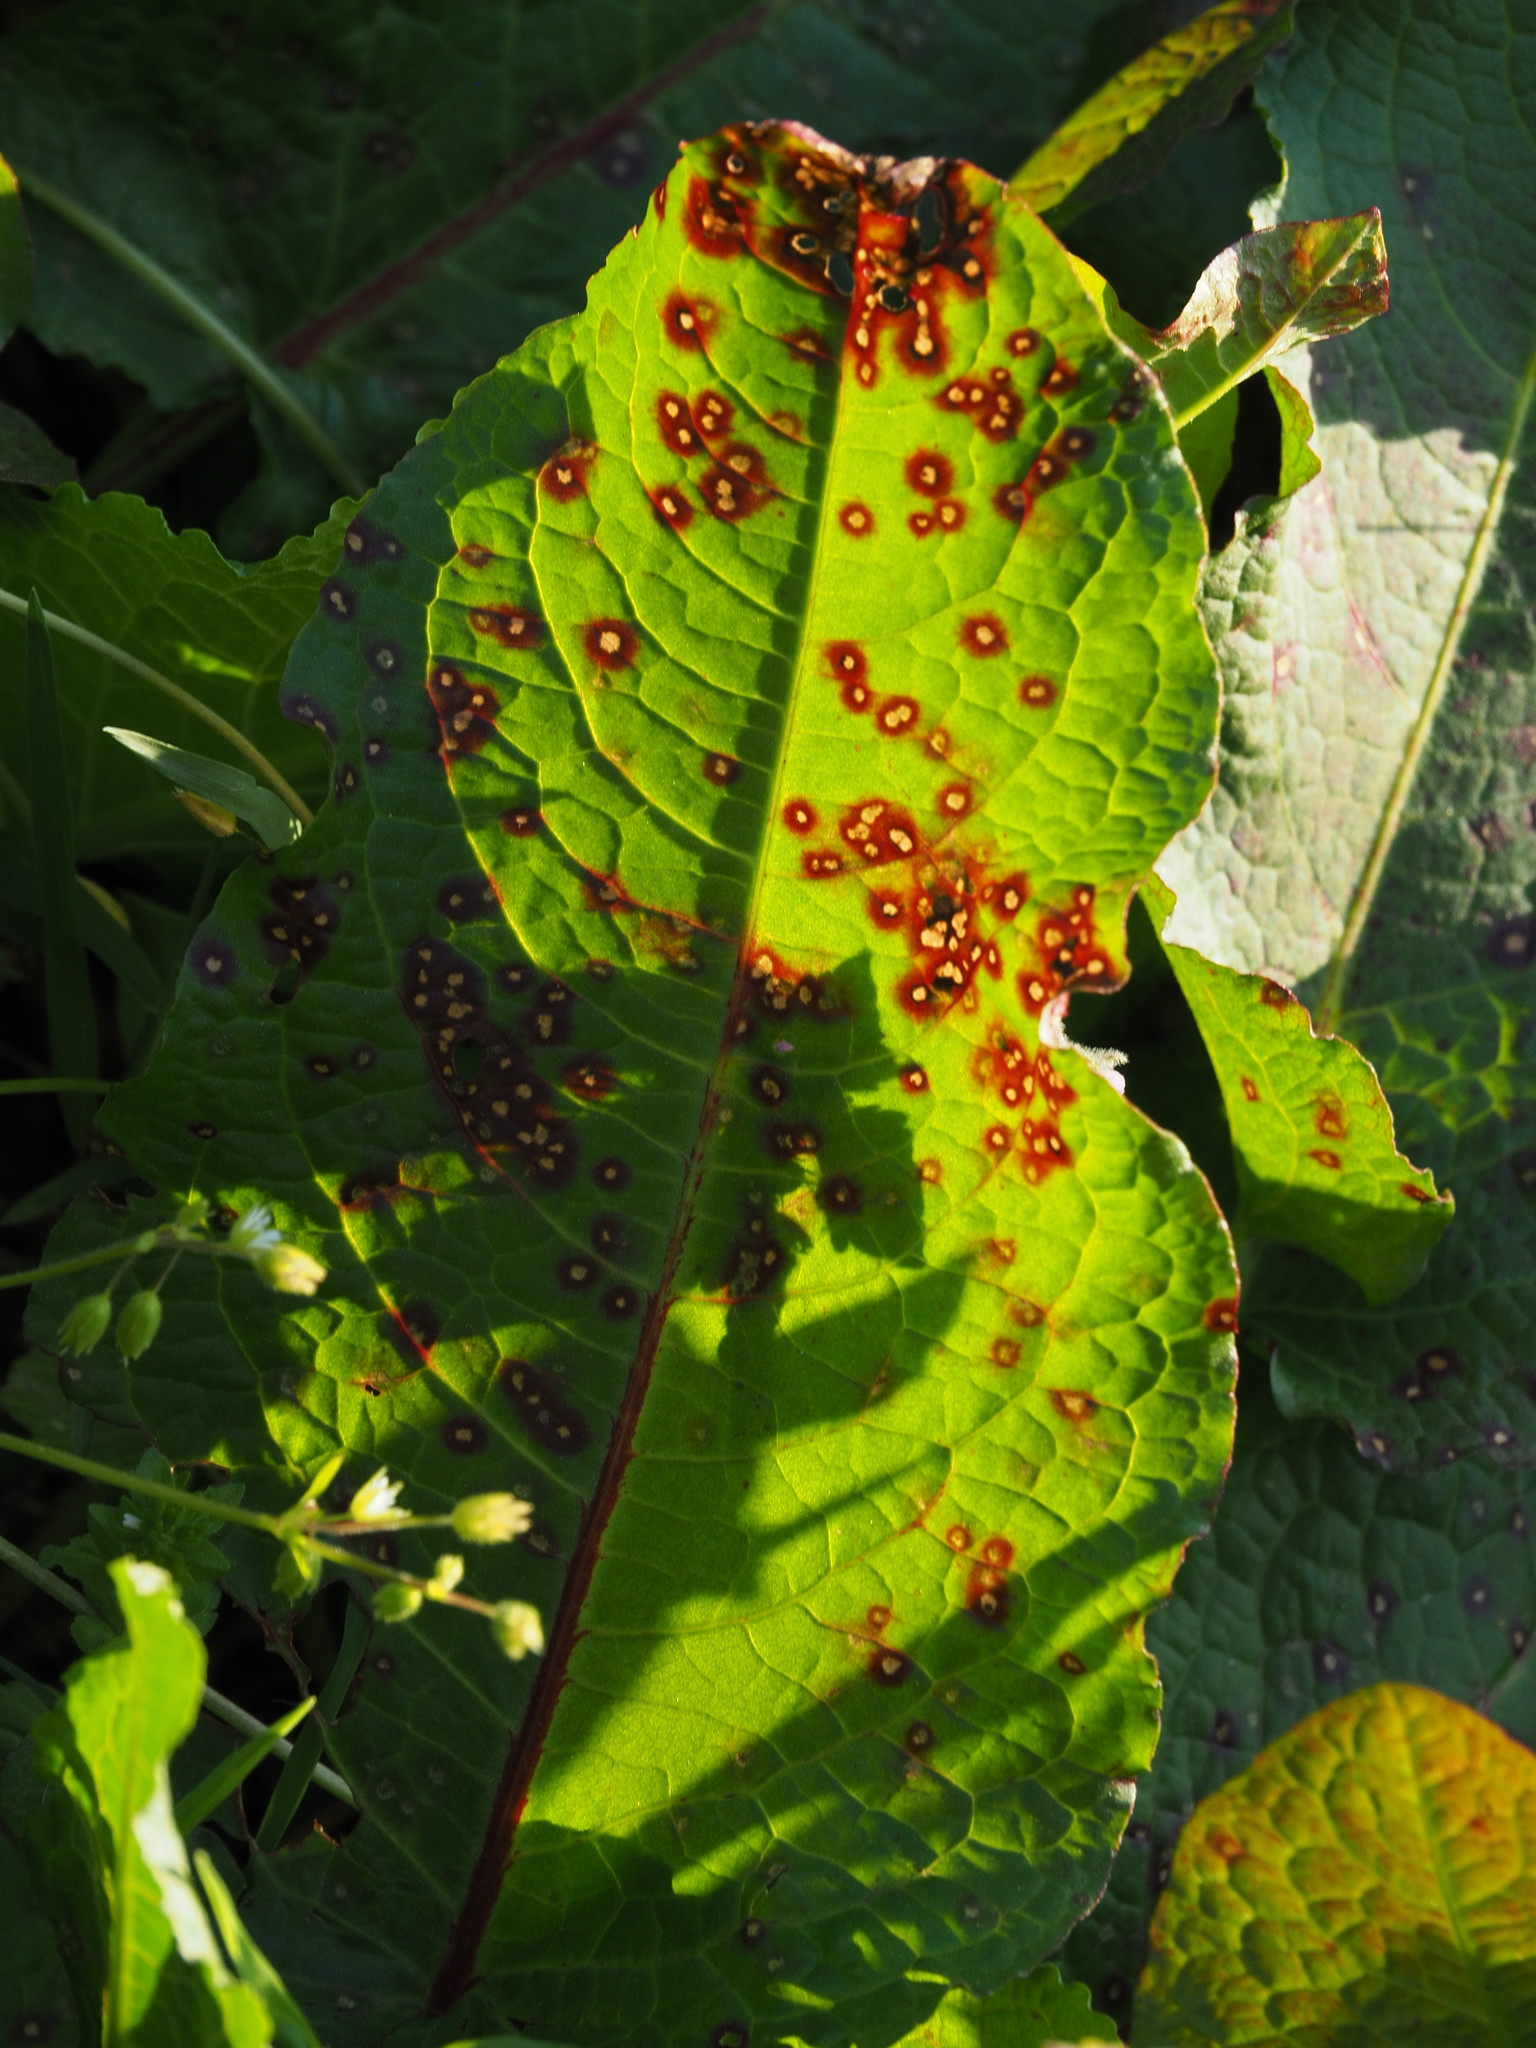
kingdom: Fungi
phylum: Ascomycota
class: Dothideomycetes
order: Mycosphaerellales
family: Mycosphaerellaceae
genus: Ramularia
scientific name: Ramularia rubella
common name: Red dock spot
